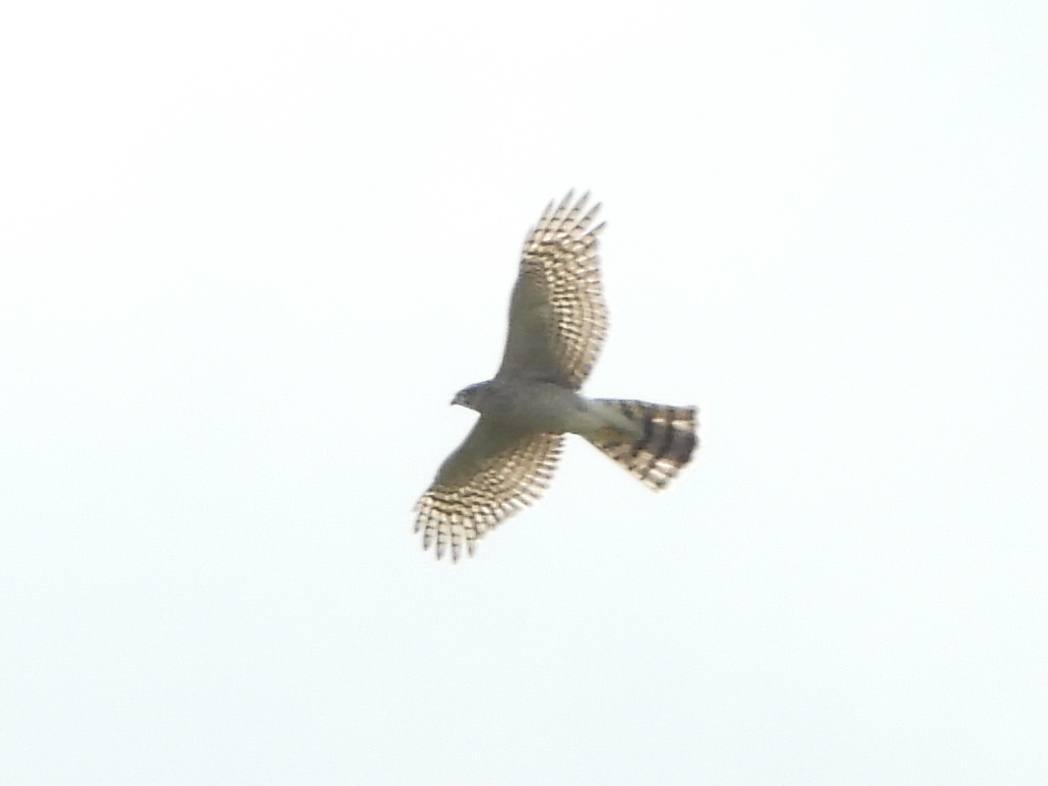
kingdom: Animalia
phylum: Chordata
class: Aves
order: Accipitriformes
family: Accipitridae
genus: Accipiter
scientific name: Accipiter nisus
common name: Eurasian sparrowhawk
